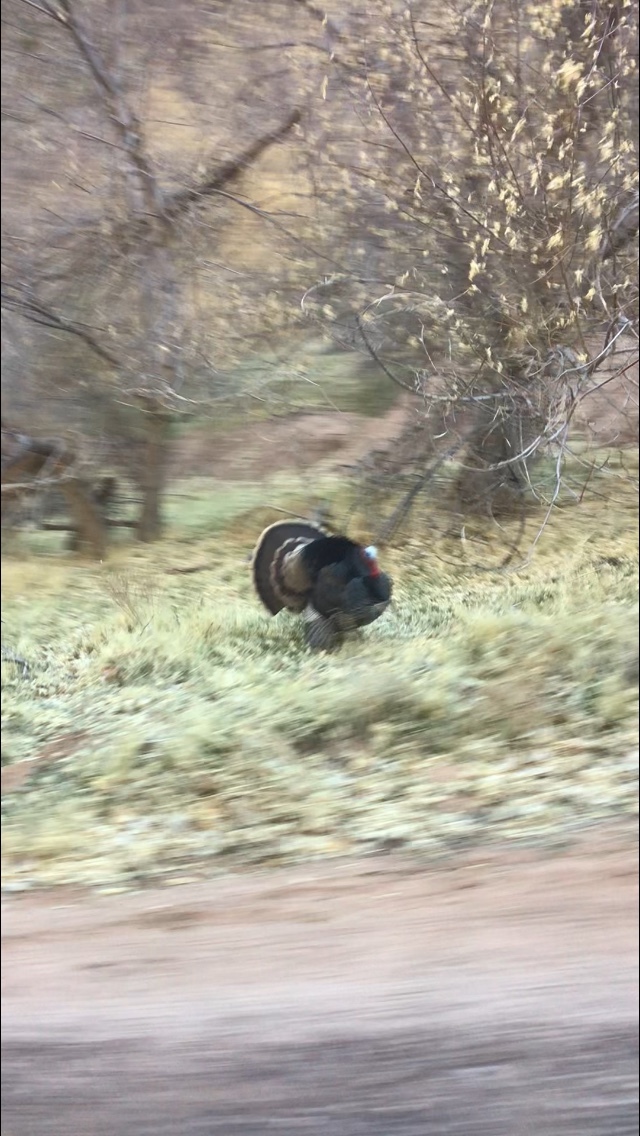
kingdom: Animalia
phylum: Chordata
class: Aves
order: Galliformes
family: Phasianidae
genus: Meleagris
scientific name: Meleagris gallopavo
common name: Wild turkey
